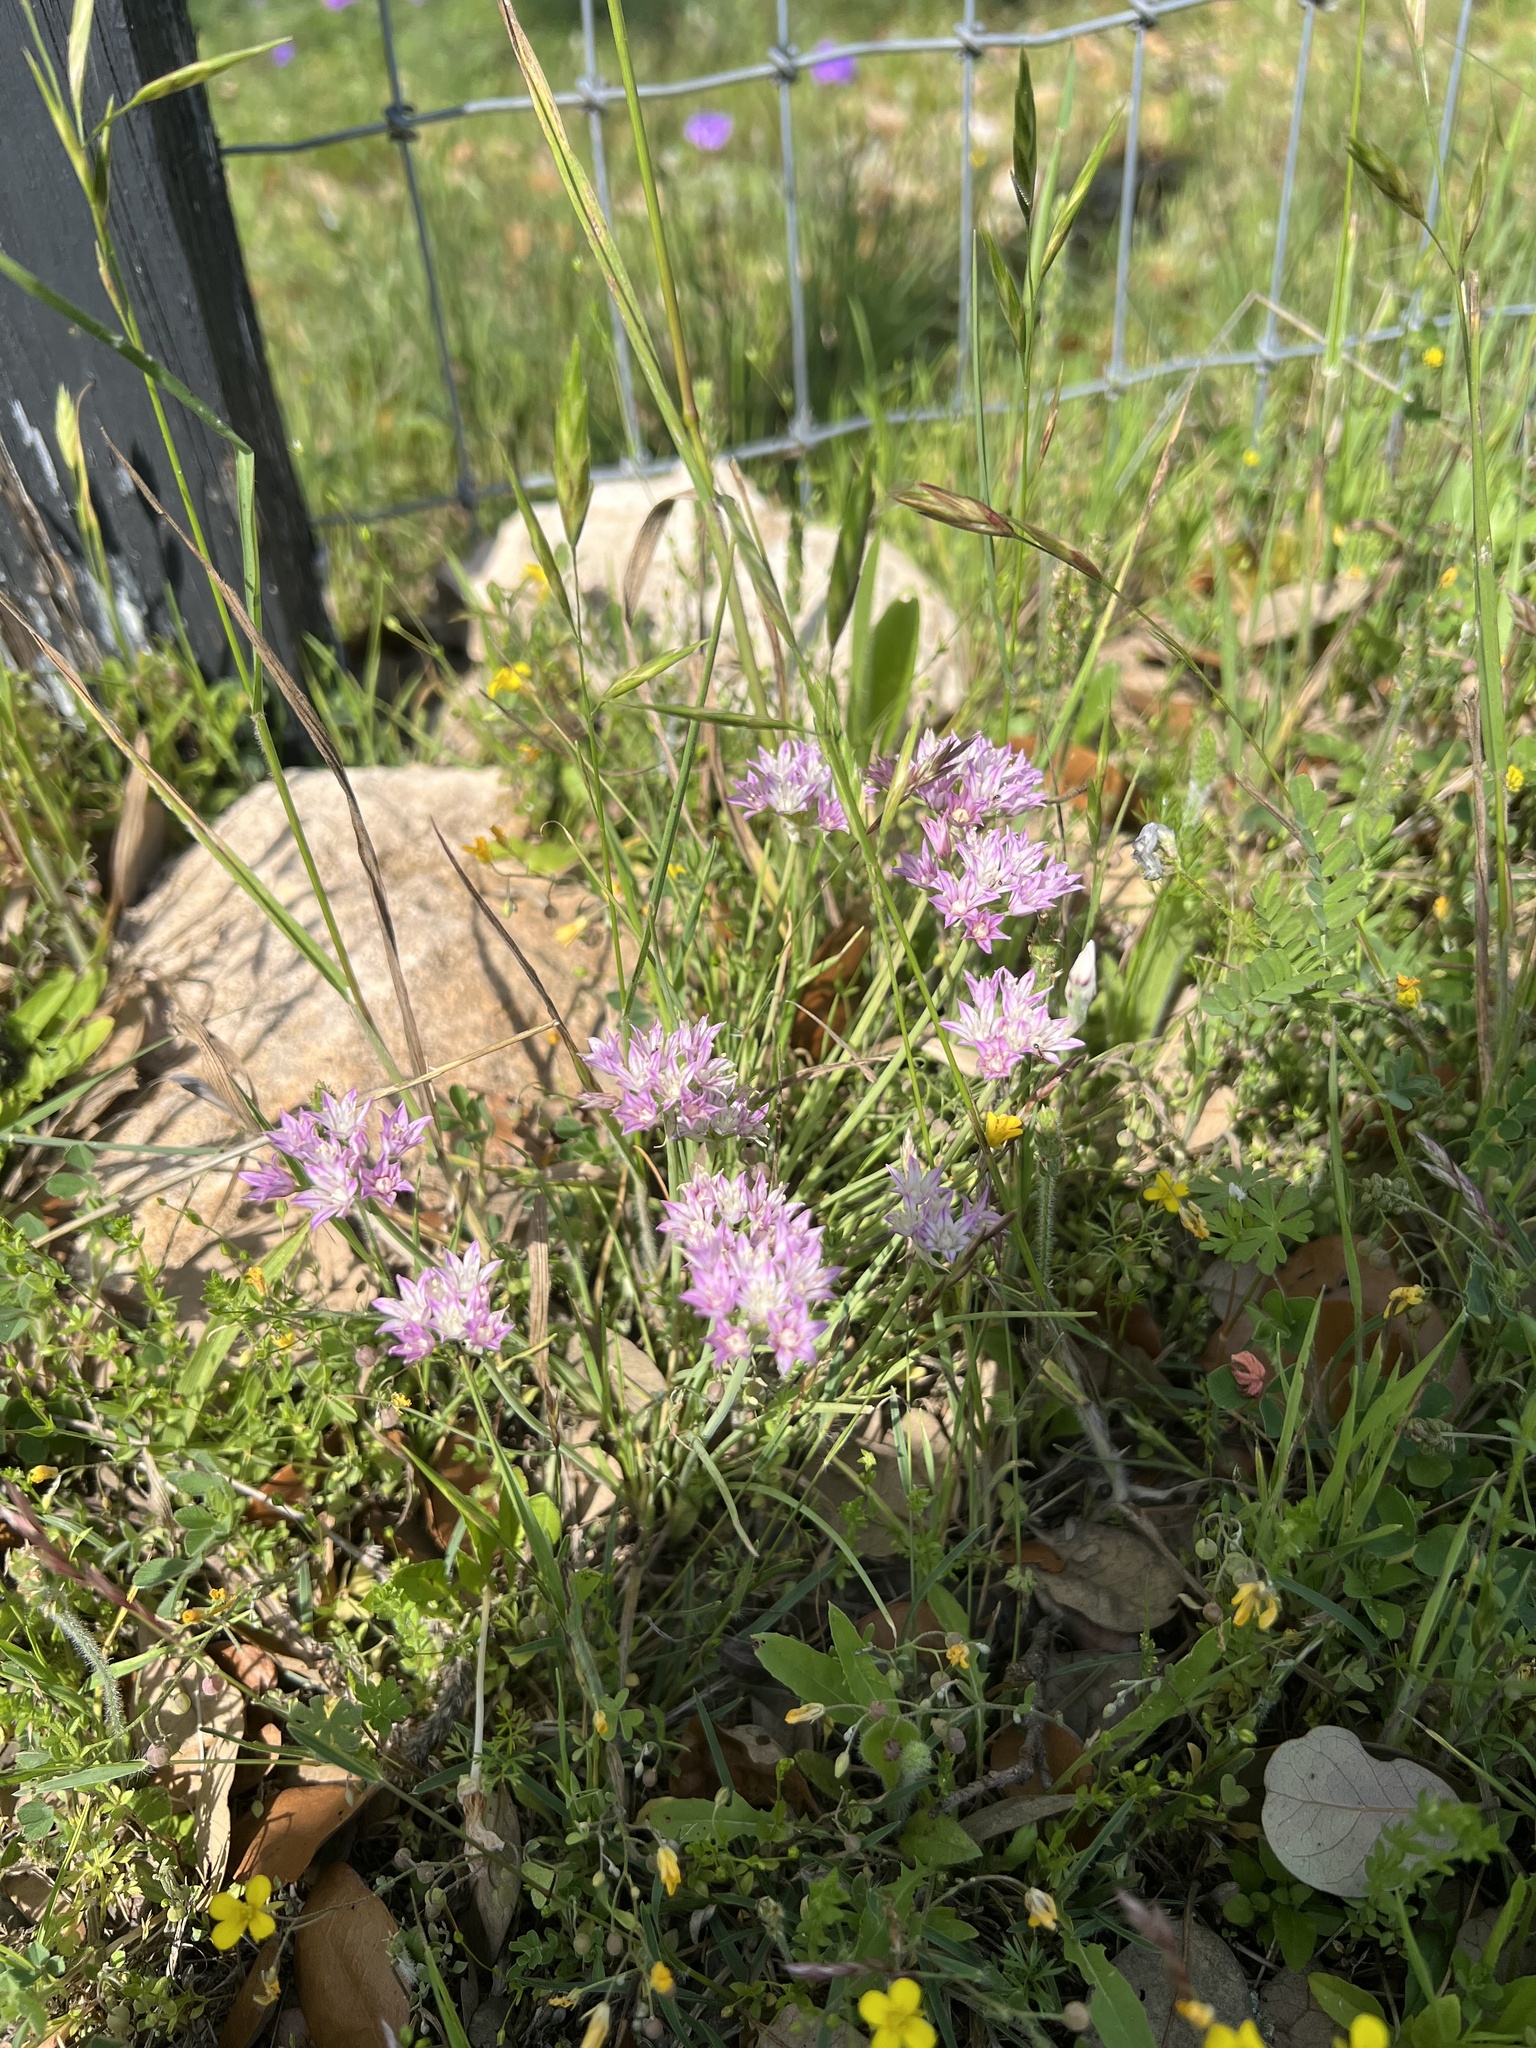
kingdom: Plantae
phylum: Tracheophyta
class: Liliopsida
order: Asparagales
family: Amaryllidaceae
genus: Allium
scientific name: Allium drummondii
